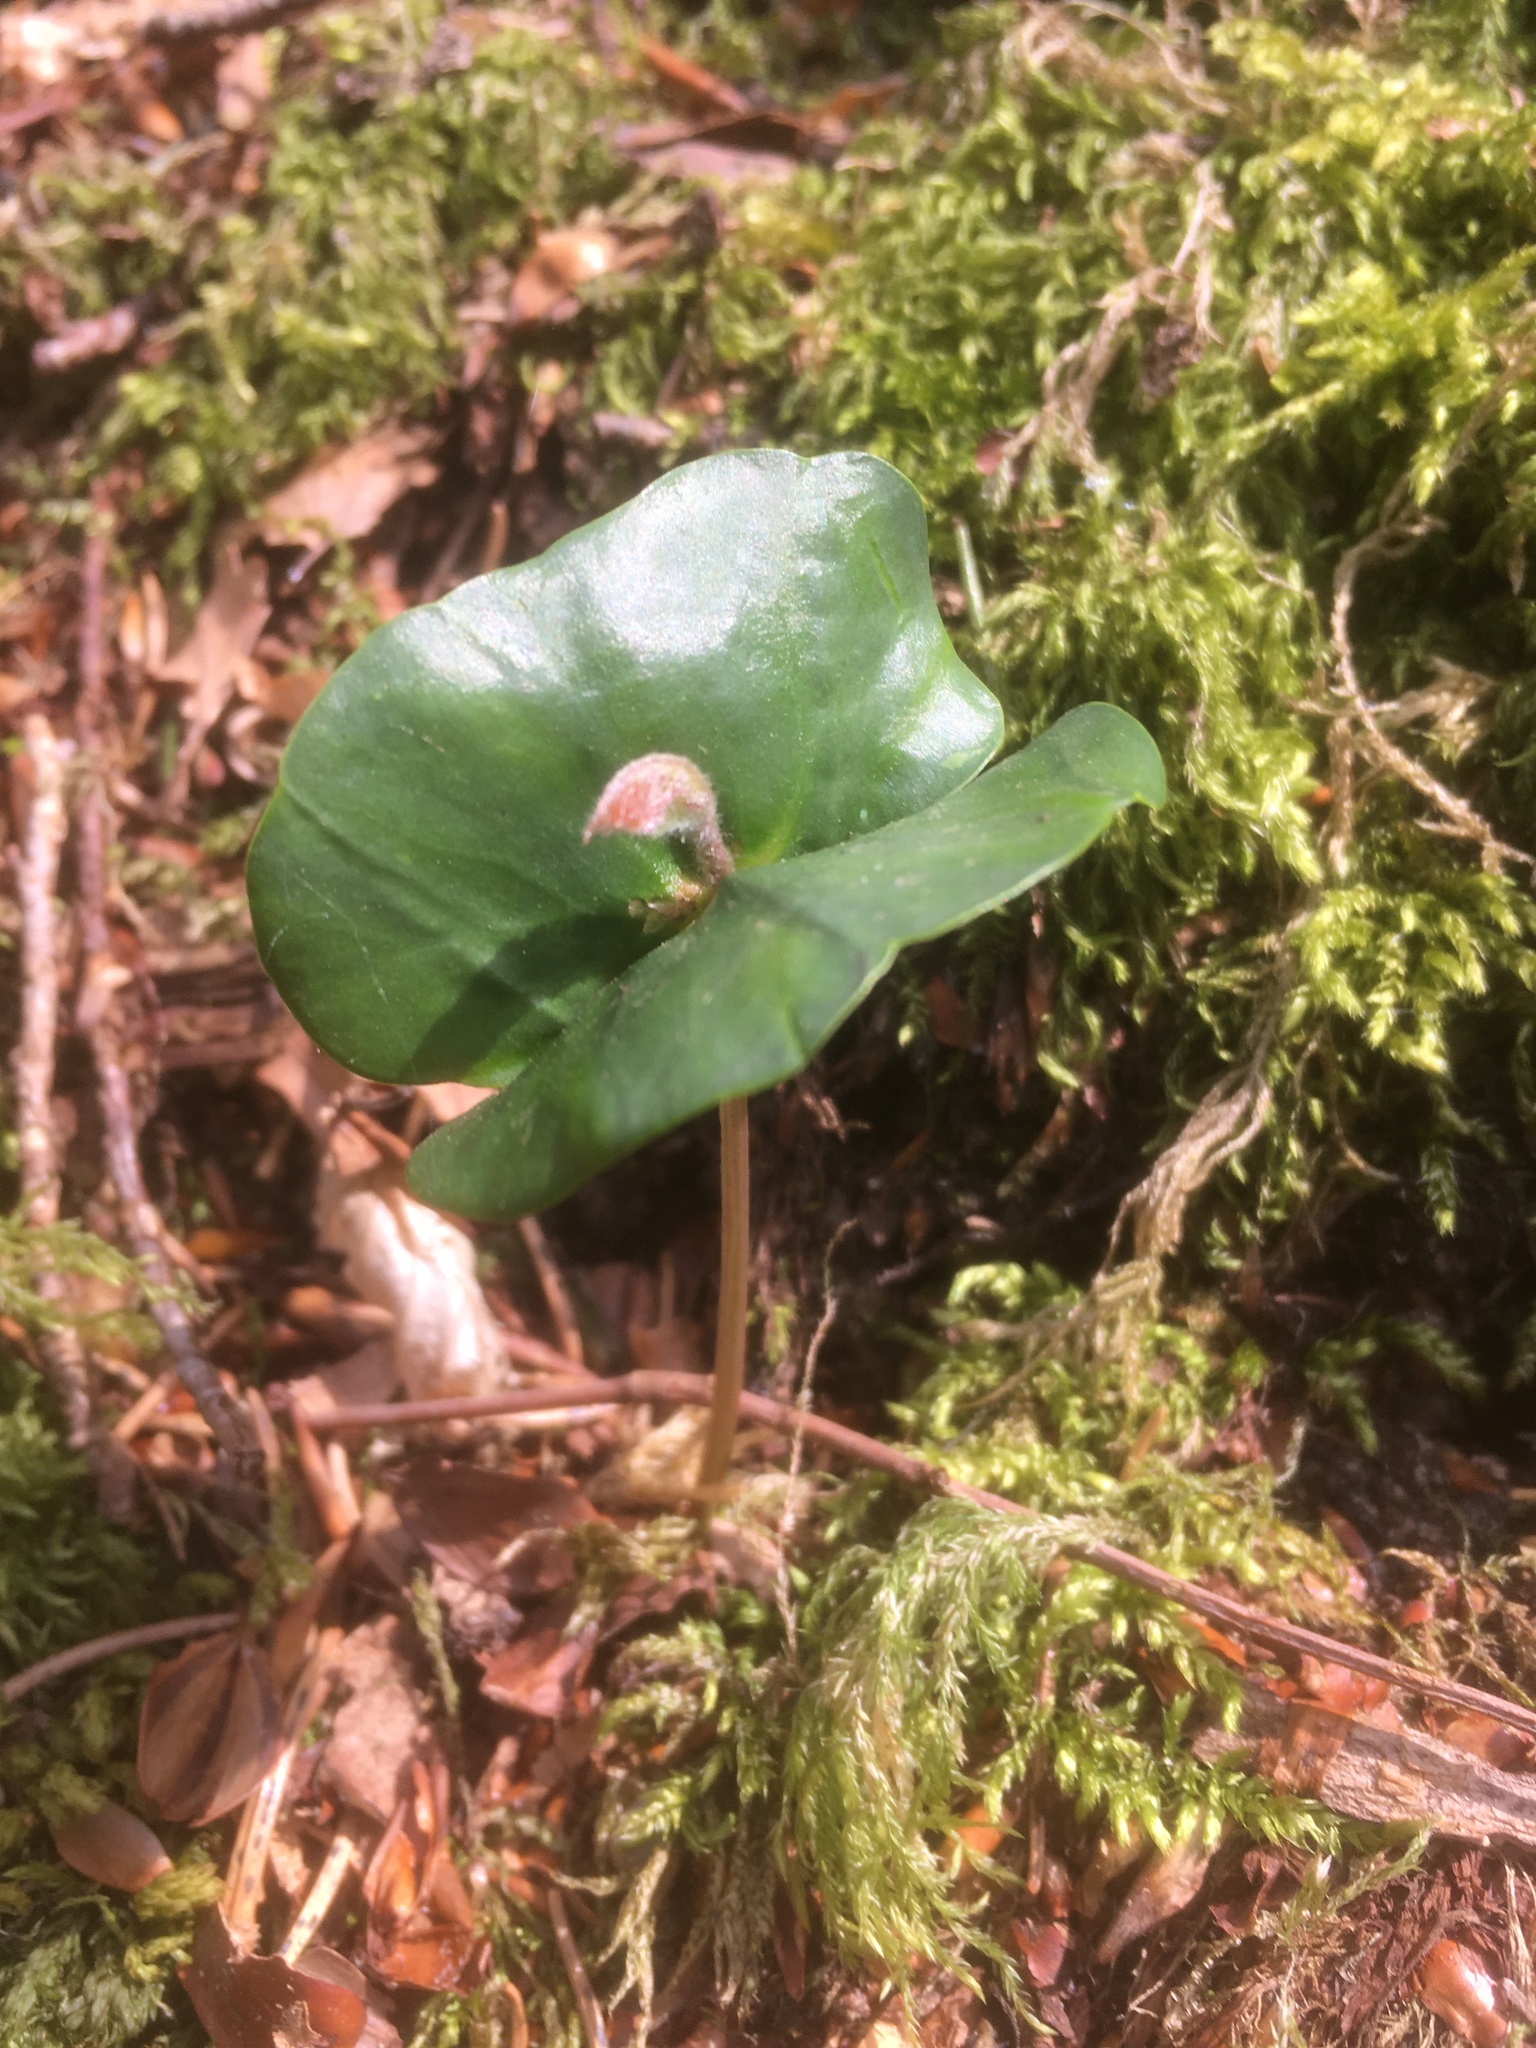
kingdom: Plantae
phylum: Tracheophyta
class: Magnoliopsida
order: Fagales
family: Fagaceae
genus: Fagus
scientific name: Fagus sylvatica
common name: Beech
